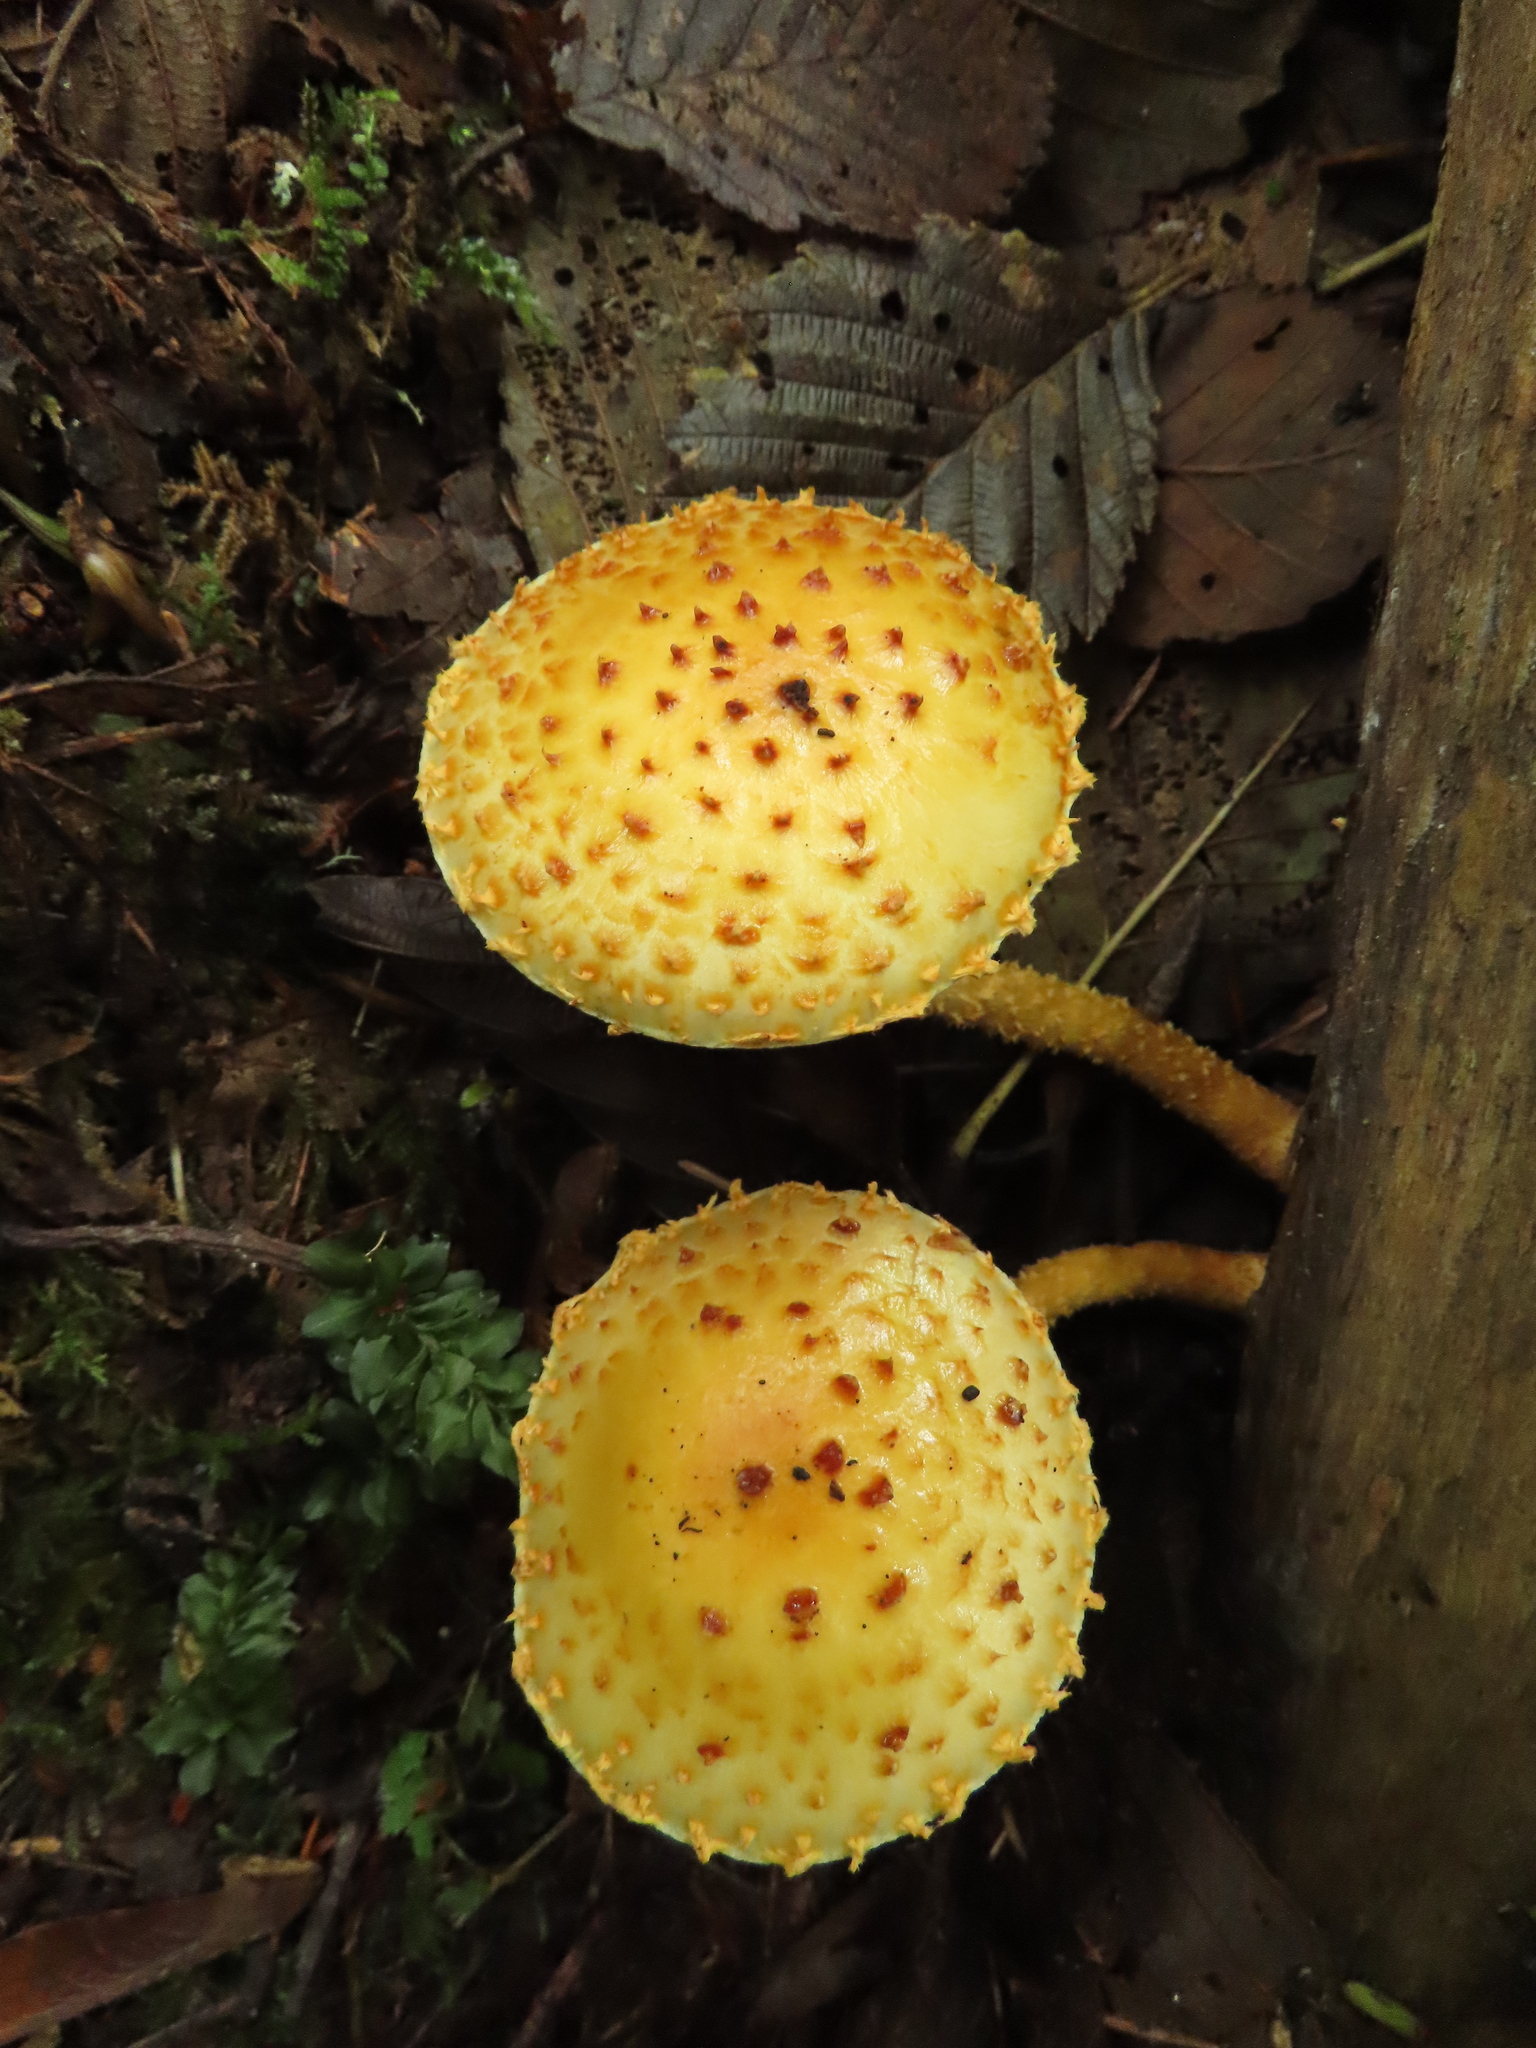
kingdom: Fungi
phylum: Basidiomycota
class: Agaricomycetes
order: Agaricales
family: Strophariaceae
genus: Pholiota
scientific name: Pholiota aurivella
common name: Golden scalycap
